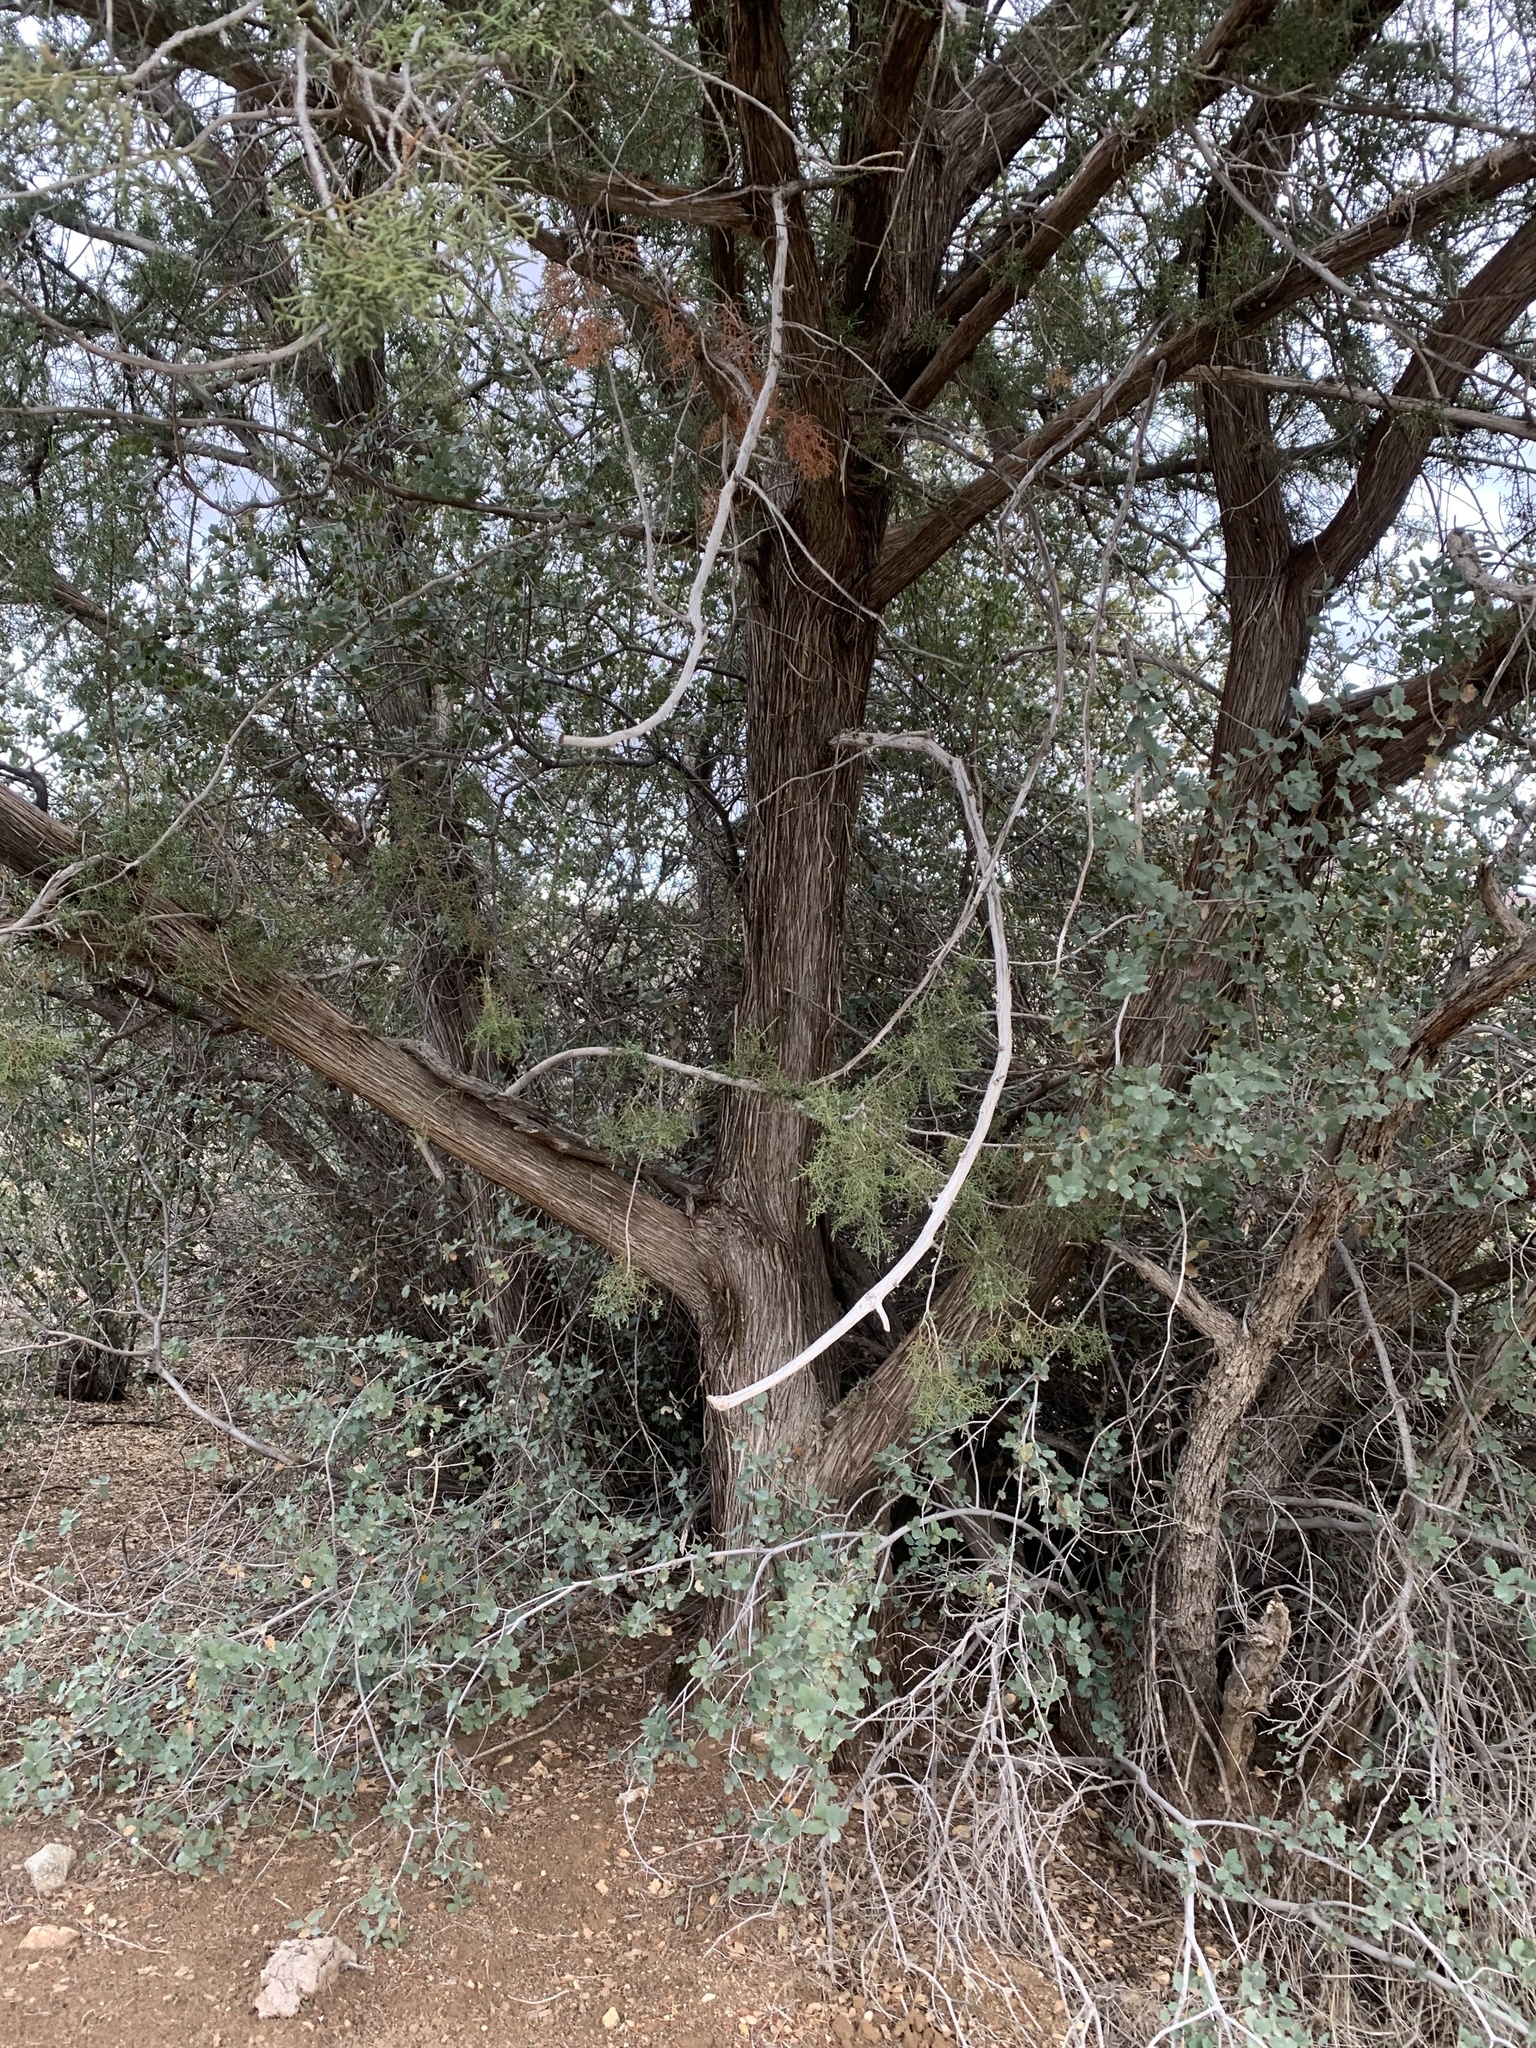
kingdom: Plantae
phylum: Tracheophyta
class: Pinopsida
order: Pinales
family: Cupressaceae
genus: Juniperus
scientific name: Juniperus arizonica
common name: Arizona juniper
